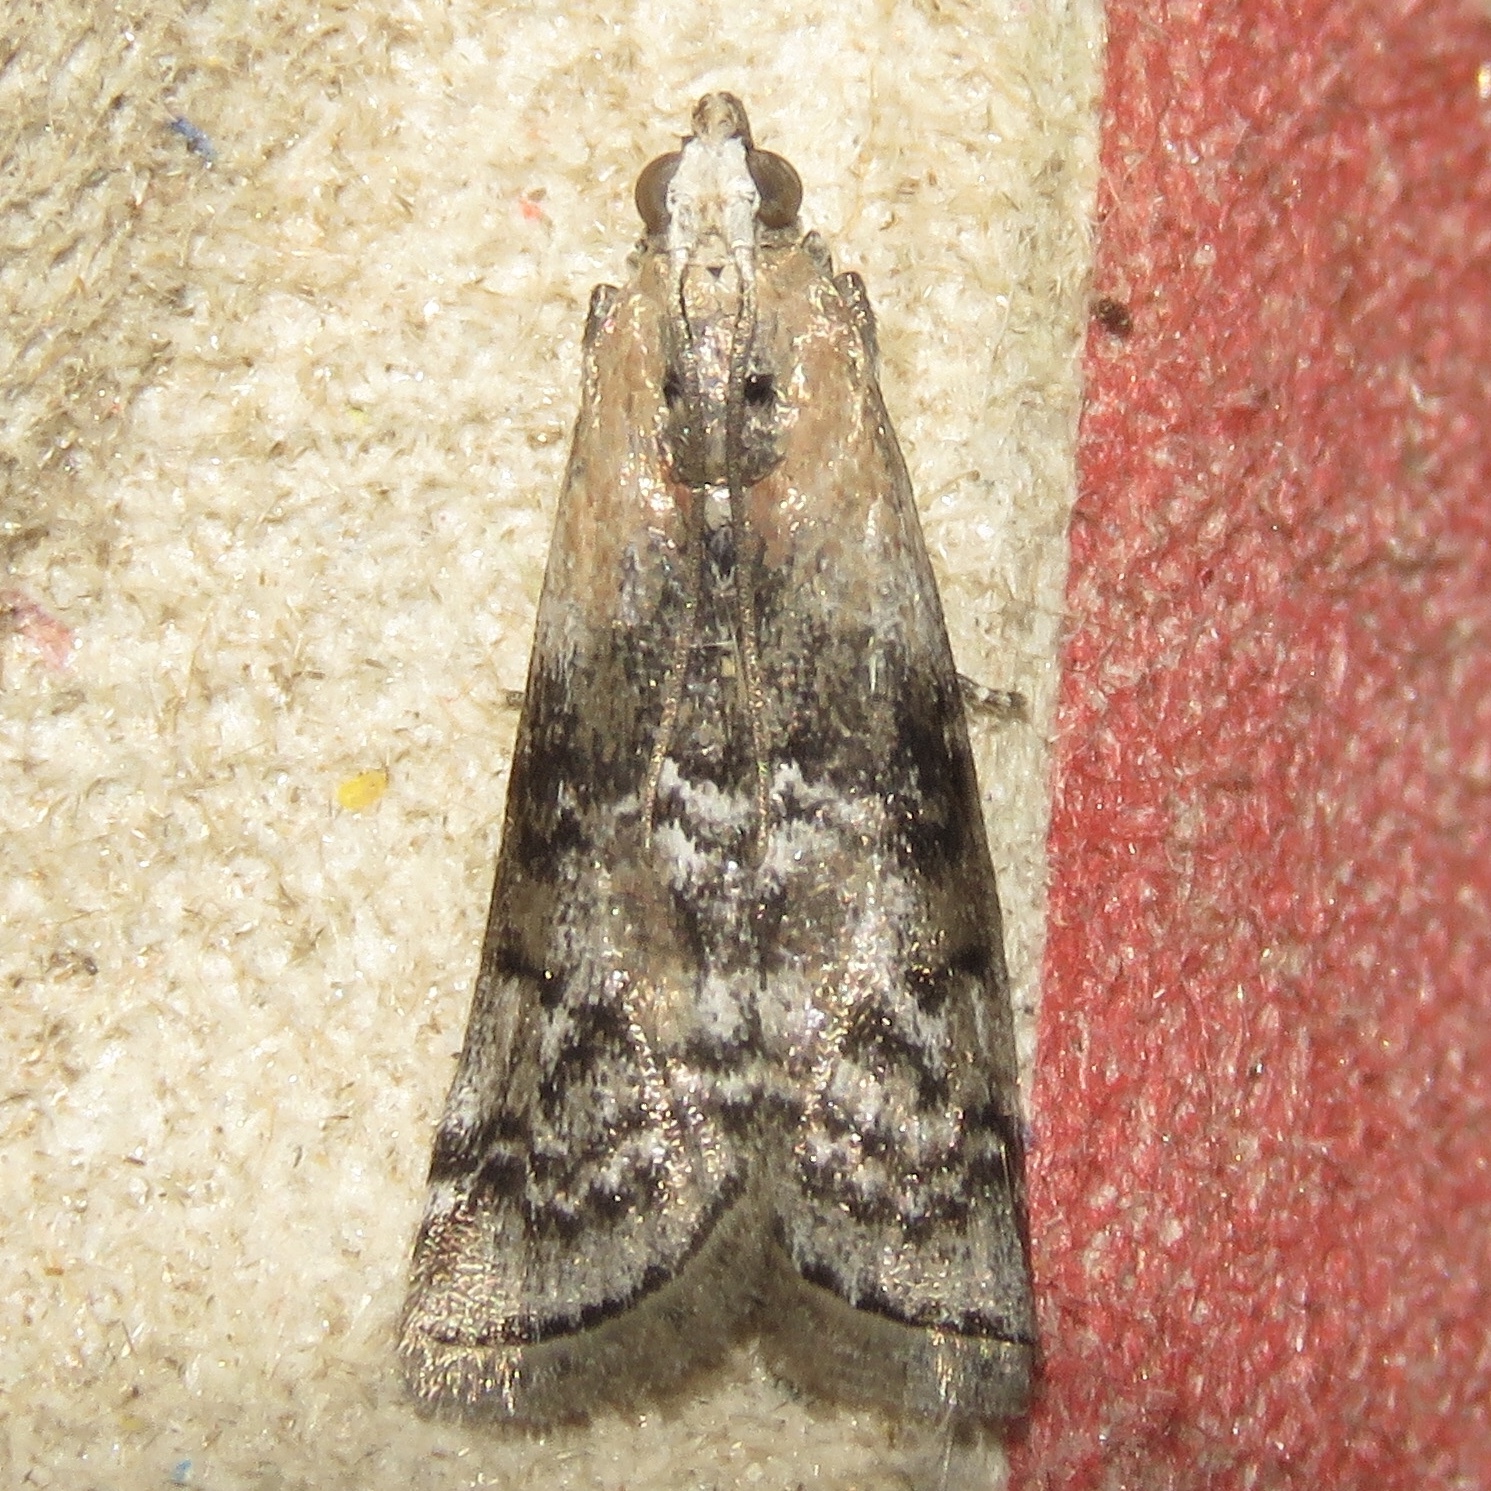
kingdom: Animalia
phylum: Arthropoda
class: Insecta
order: Lepidoptera
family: Pyralidae
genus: Glyptocera
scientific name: Glyptocera consobrinella
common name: Viburnum glyptocera moth
